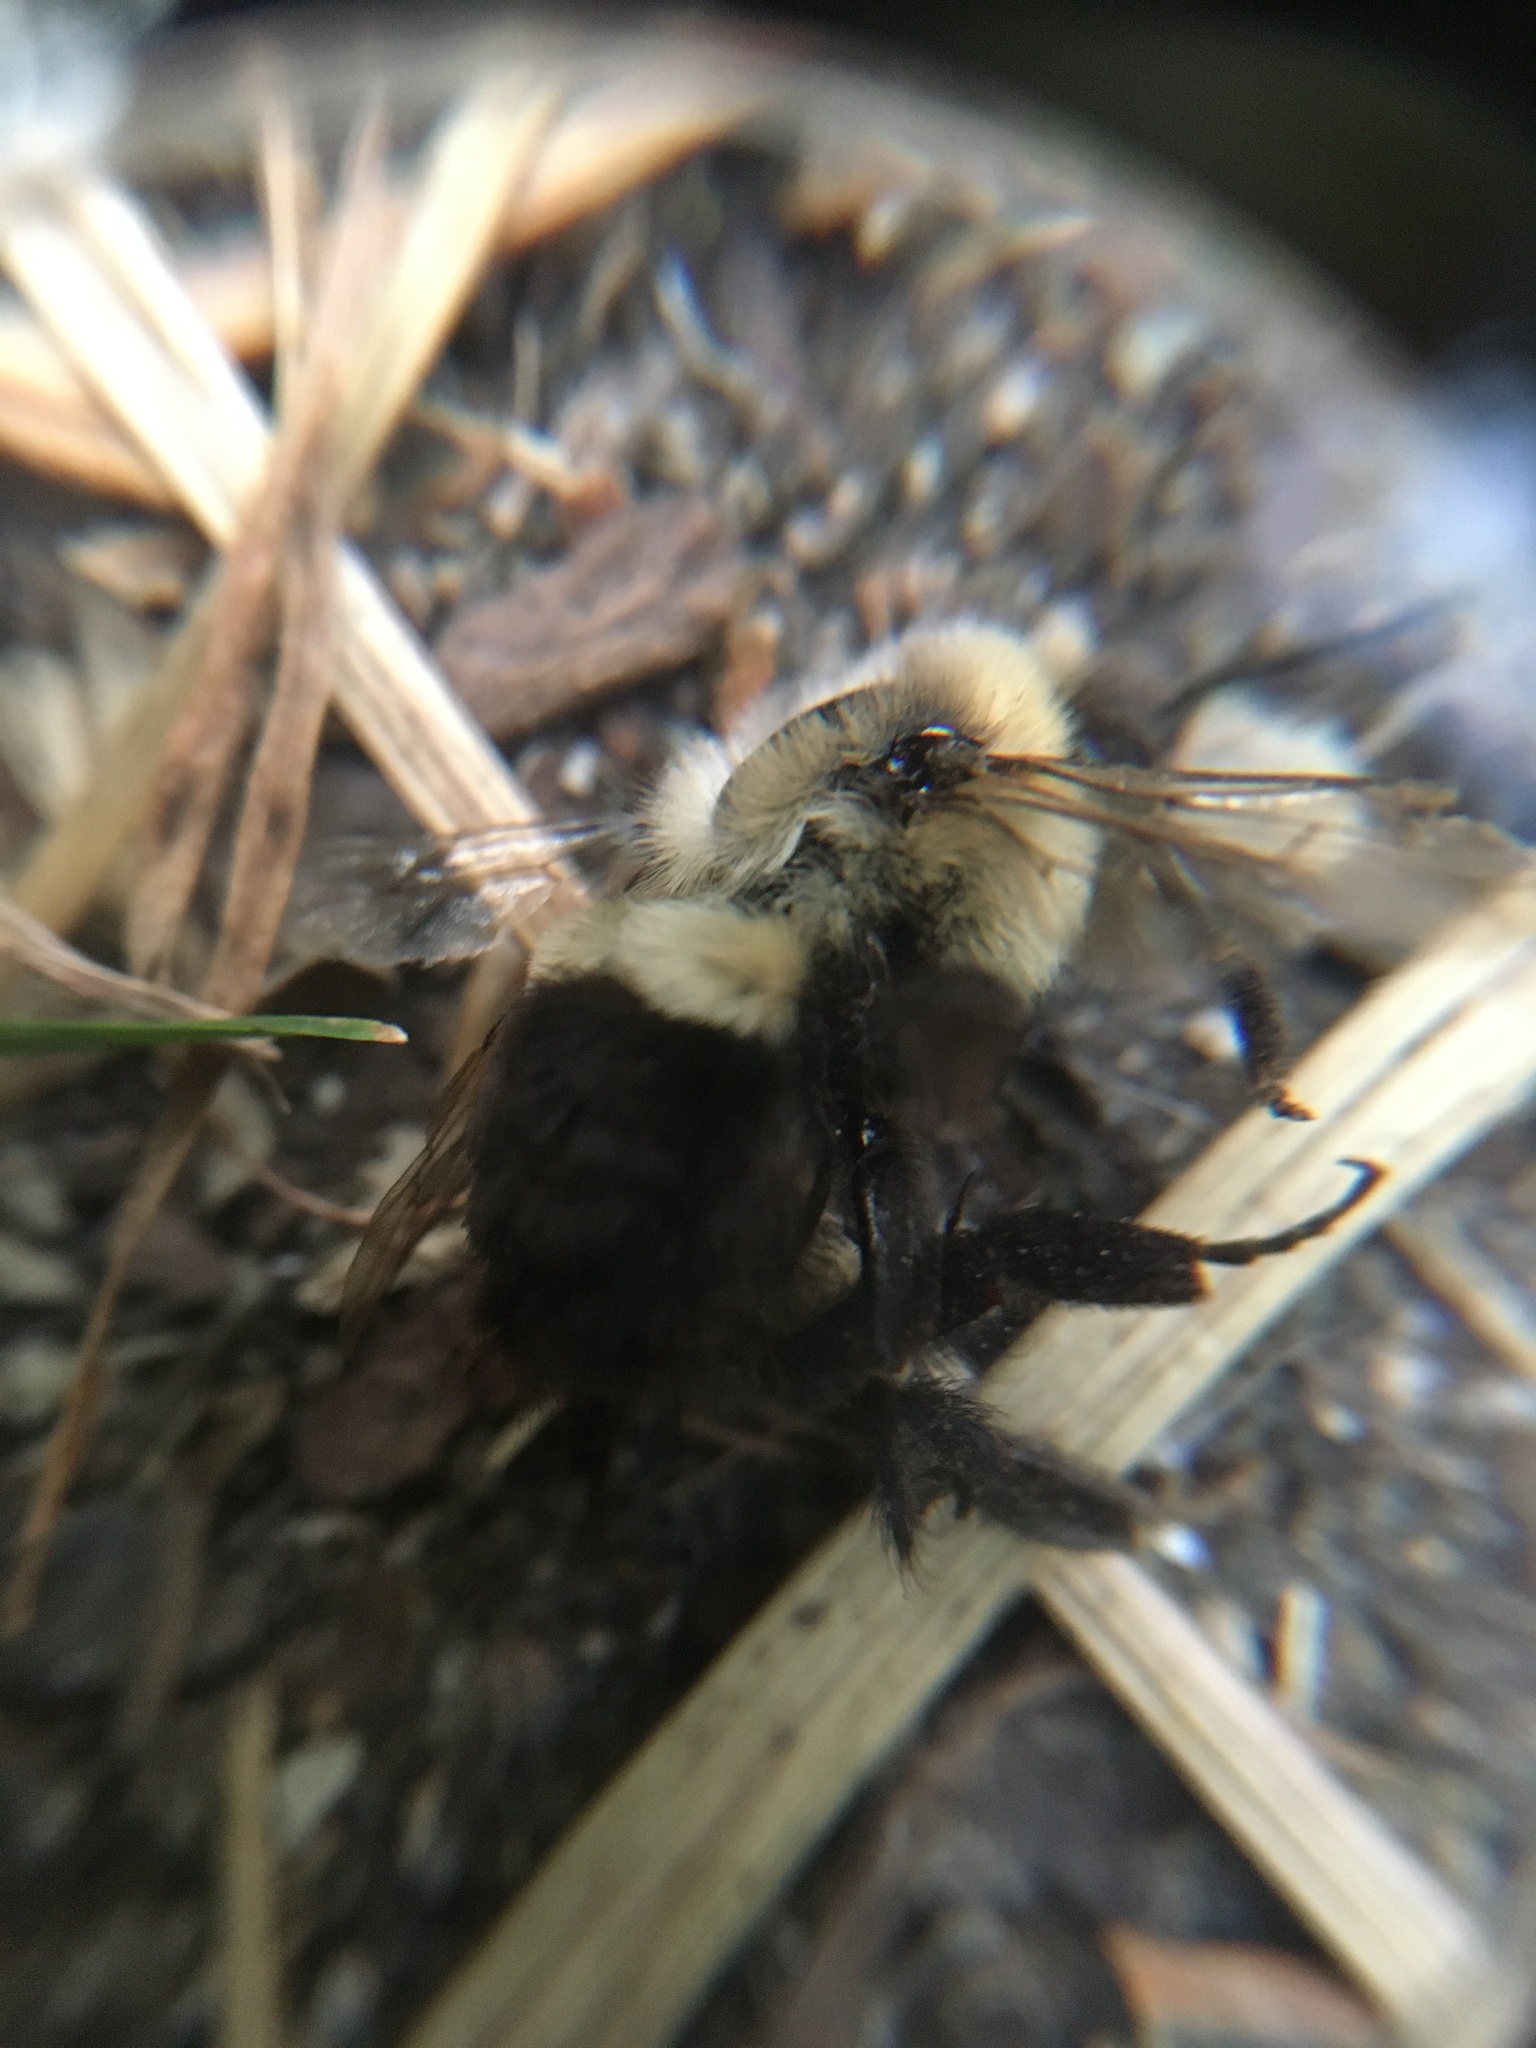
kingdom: Animalia
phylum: Arthropoda
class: Insecta
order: Hymenoptera
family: Apidae
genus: Bombus
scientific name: Bombus impatiens
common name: Common eastern bumble bee
